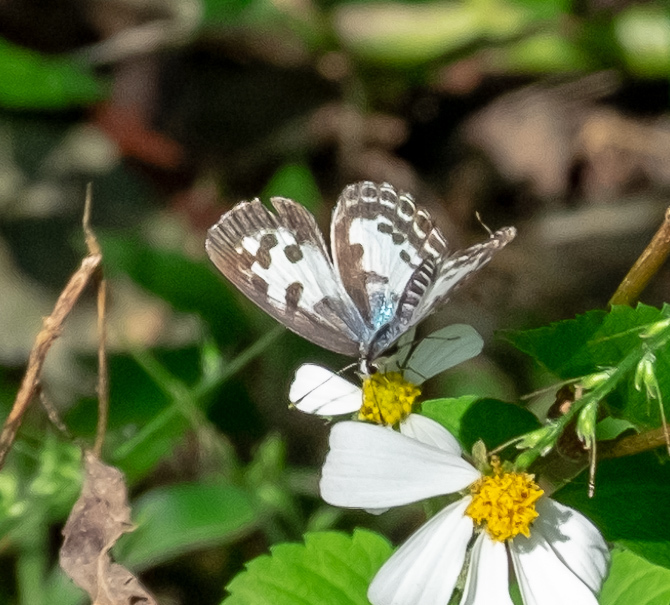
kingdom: Animalia
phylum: Arthropoda
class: Insecta
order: Lepidoptera
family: Lycaenidae
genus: Castalius
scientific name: Castalius rosimon
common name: Common pierrot
